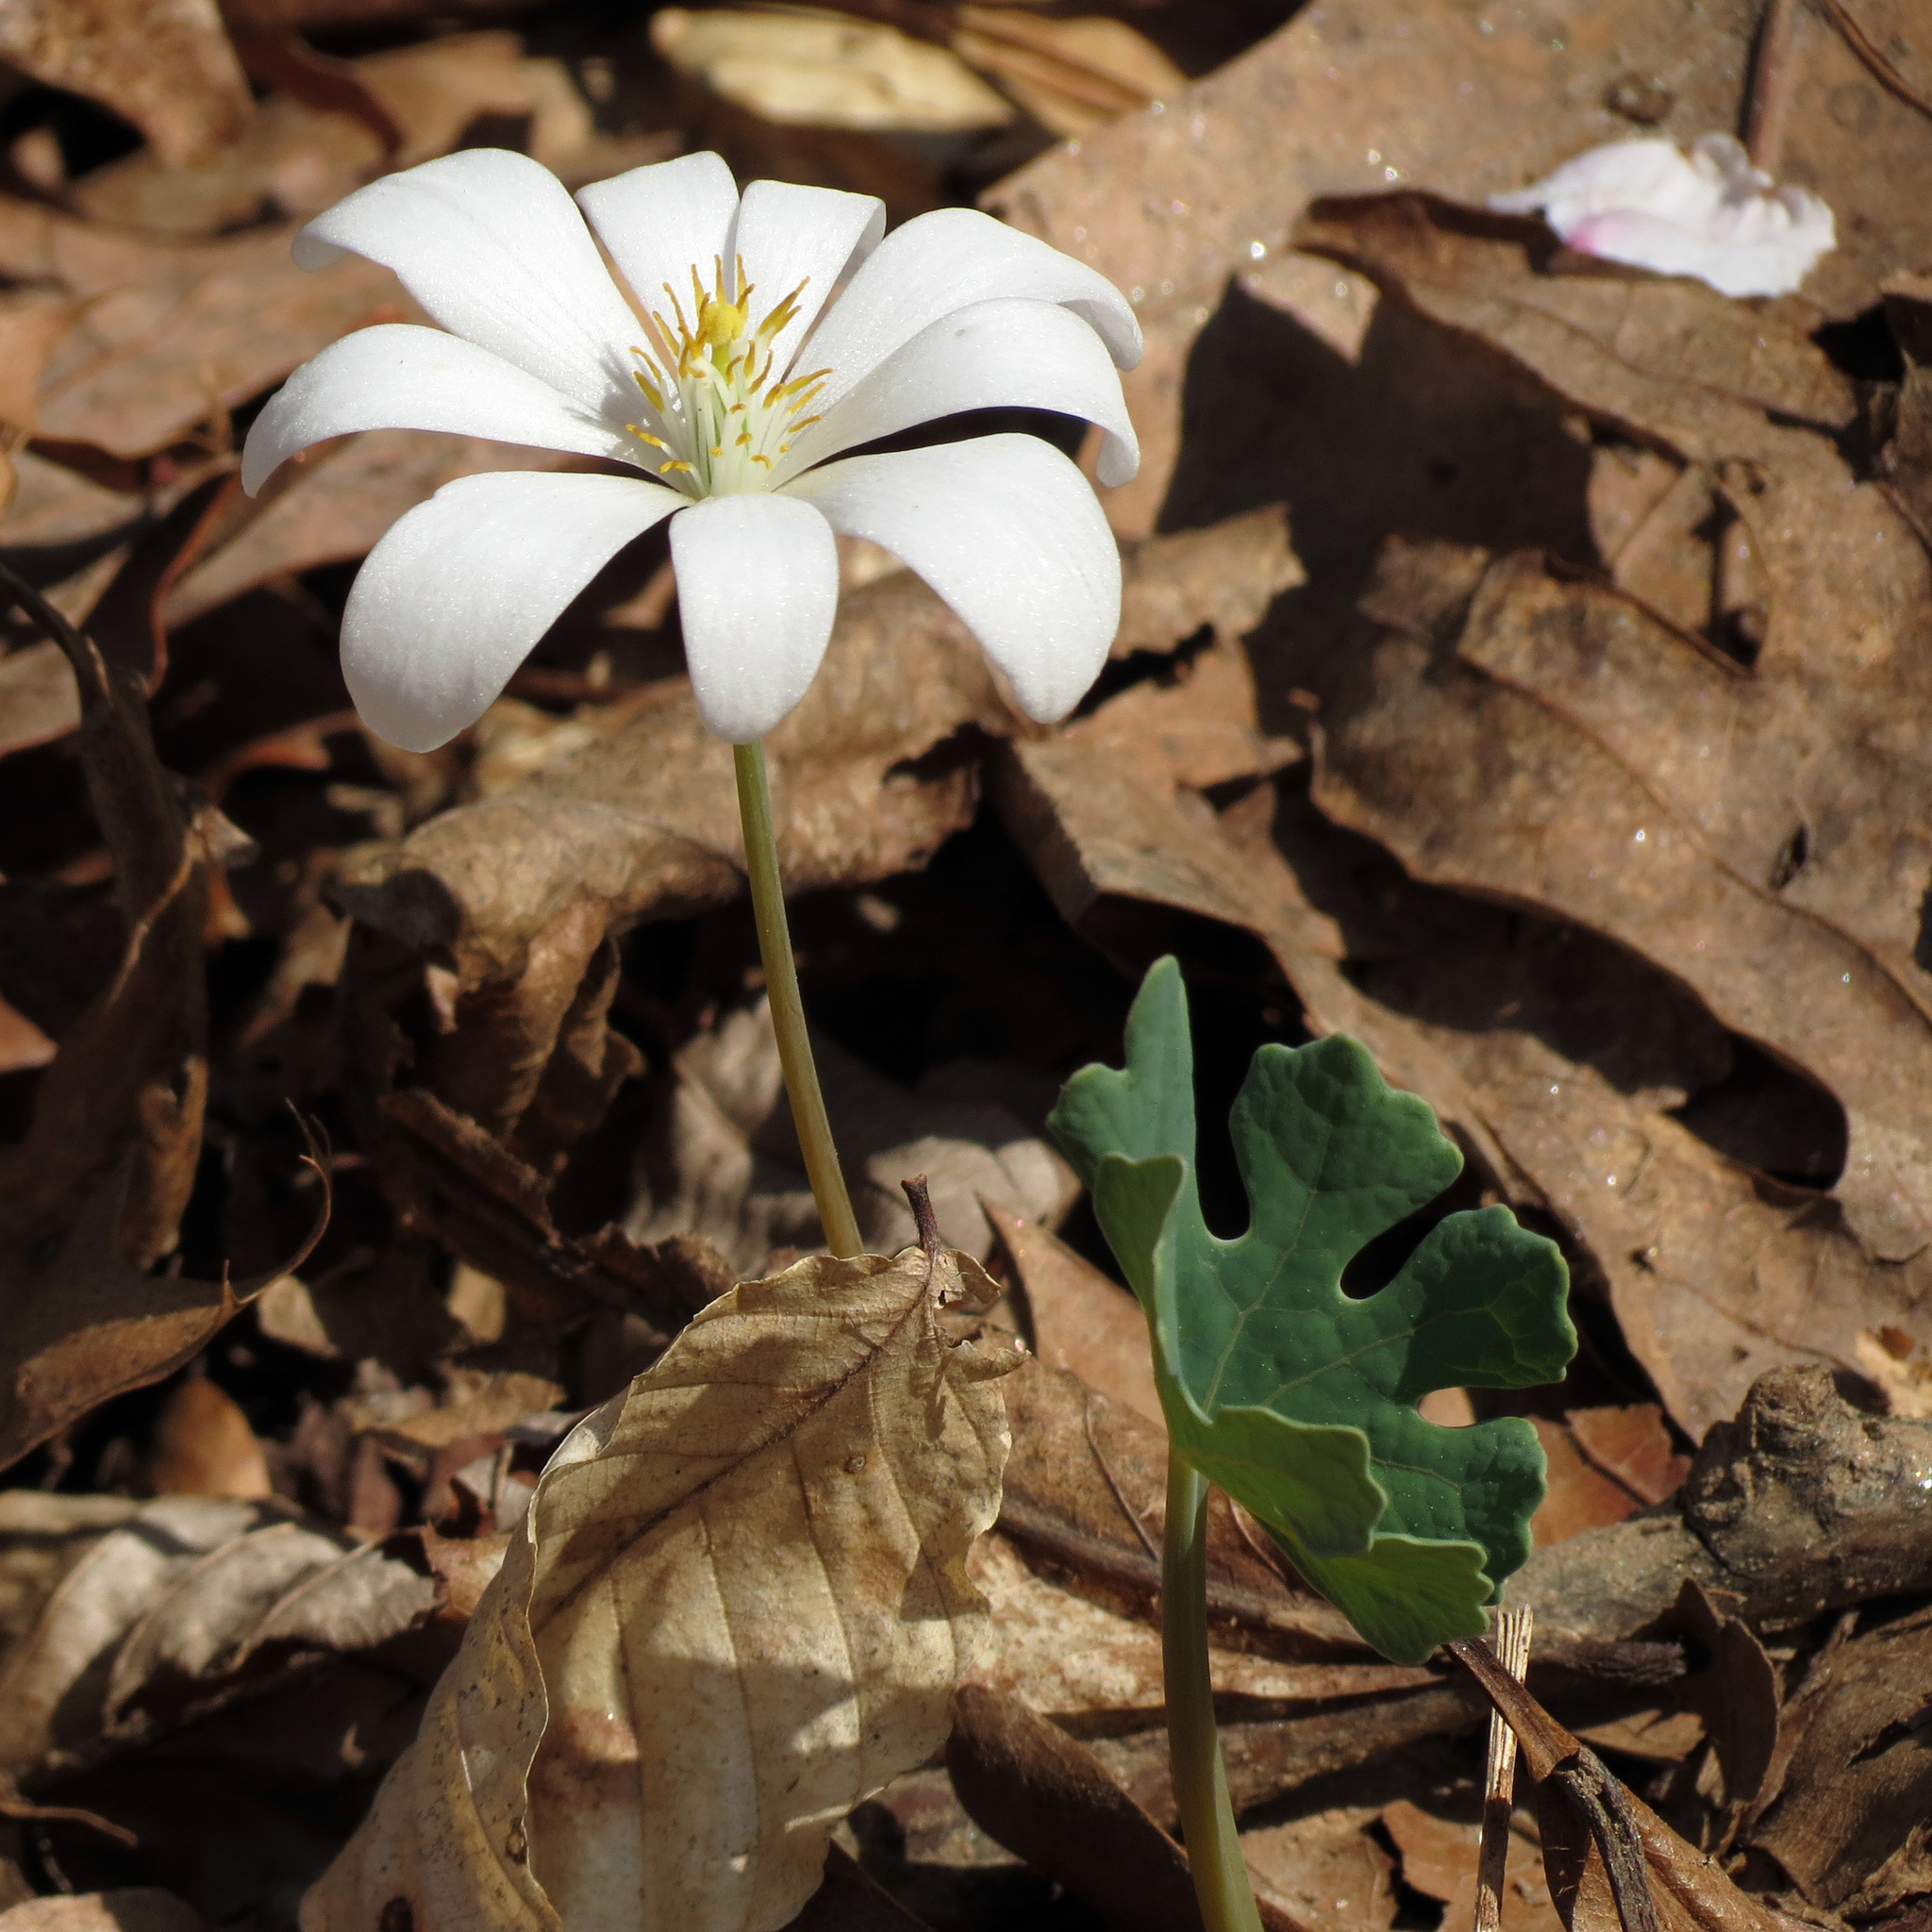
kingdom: Plantae
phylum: Tracheophyta
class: Magnoliopsida
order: Ranunculales
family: Papaveraceae
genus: Sanguinaria
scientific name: Sanguinaria canadensis
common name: Bloodroot
